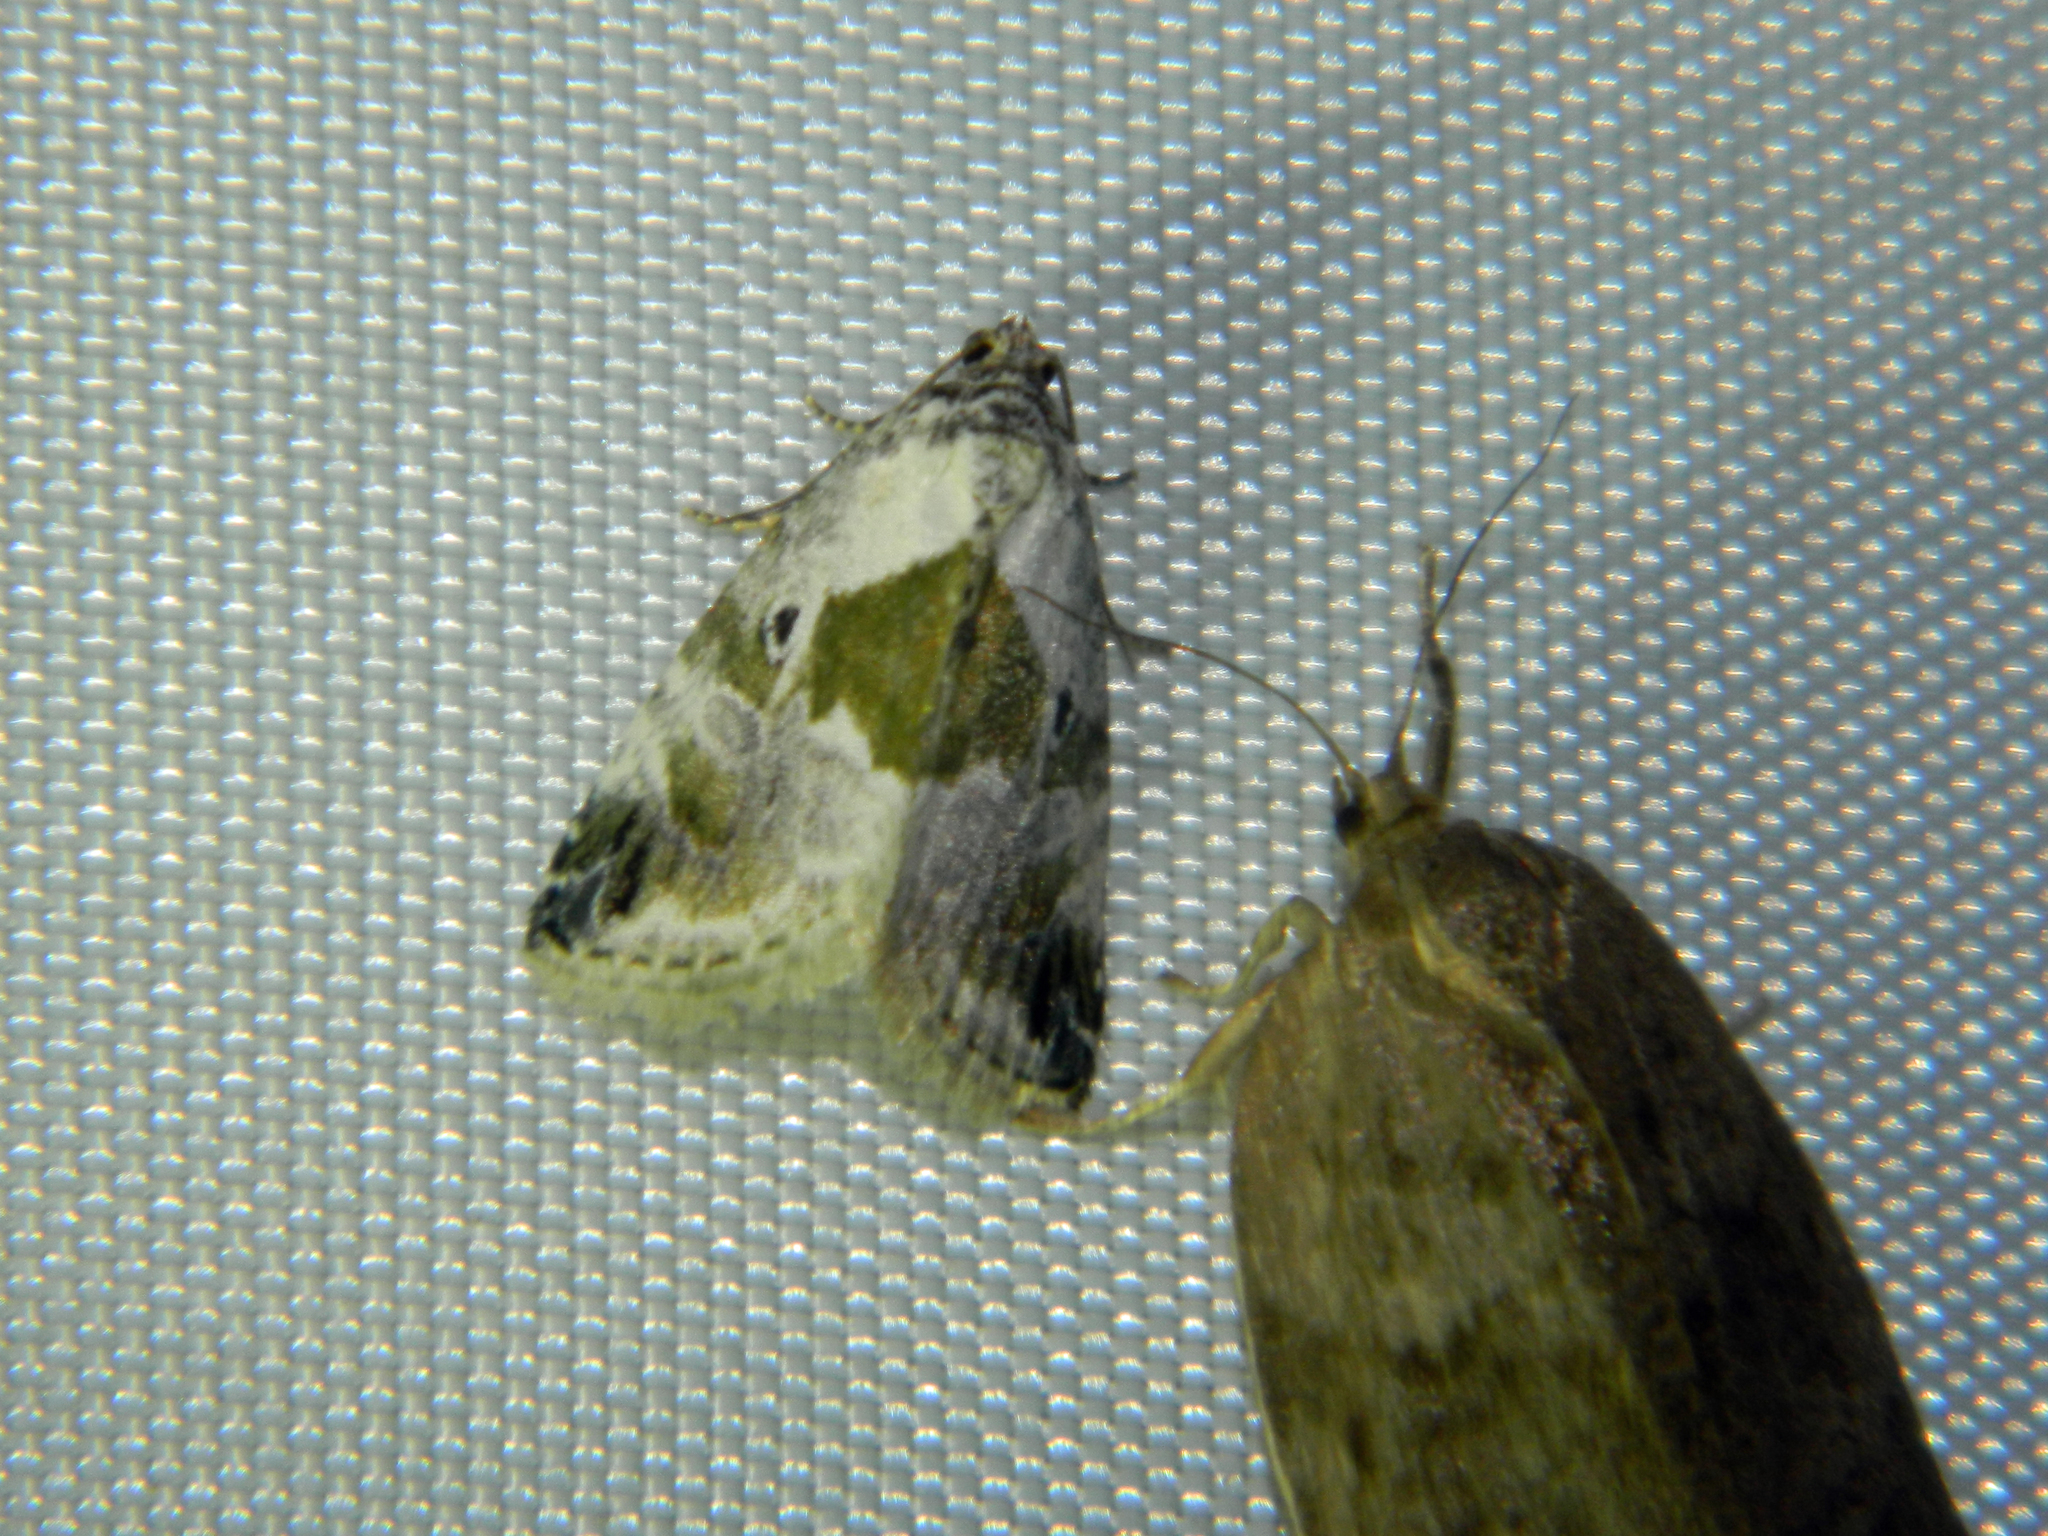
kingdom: Animalia
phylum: Arthropoda
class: Insecta
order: Lepidoptera
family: Noctuidae
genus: Maliattha
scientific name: Maliattha synochitis
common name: Black-dotted glyph
